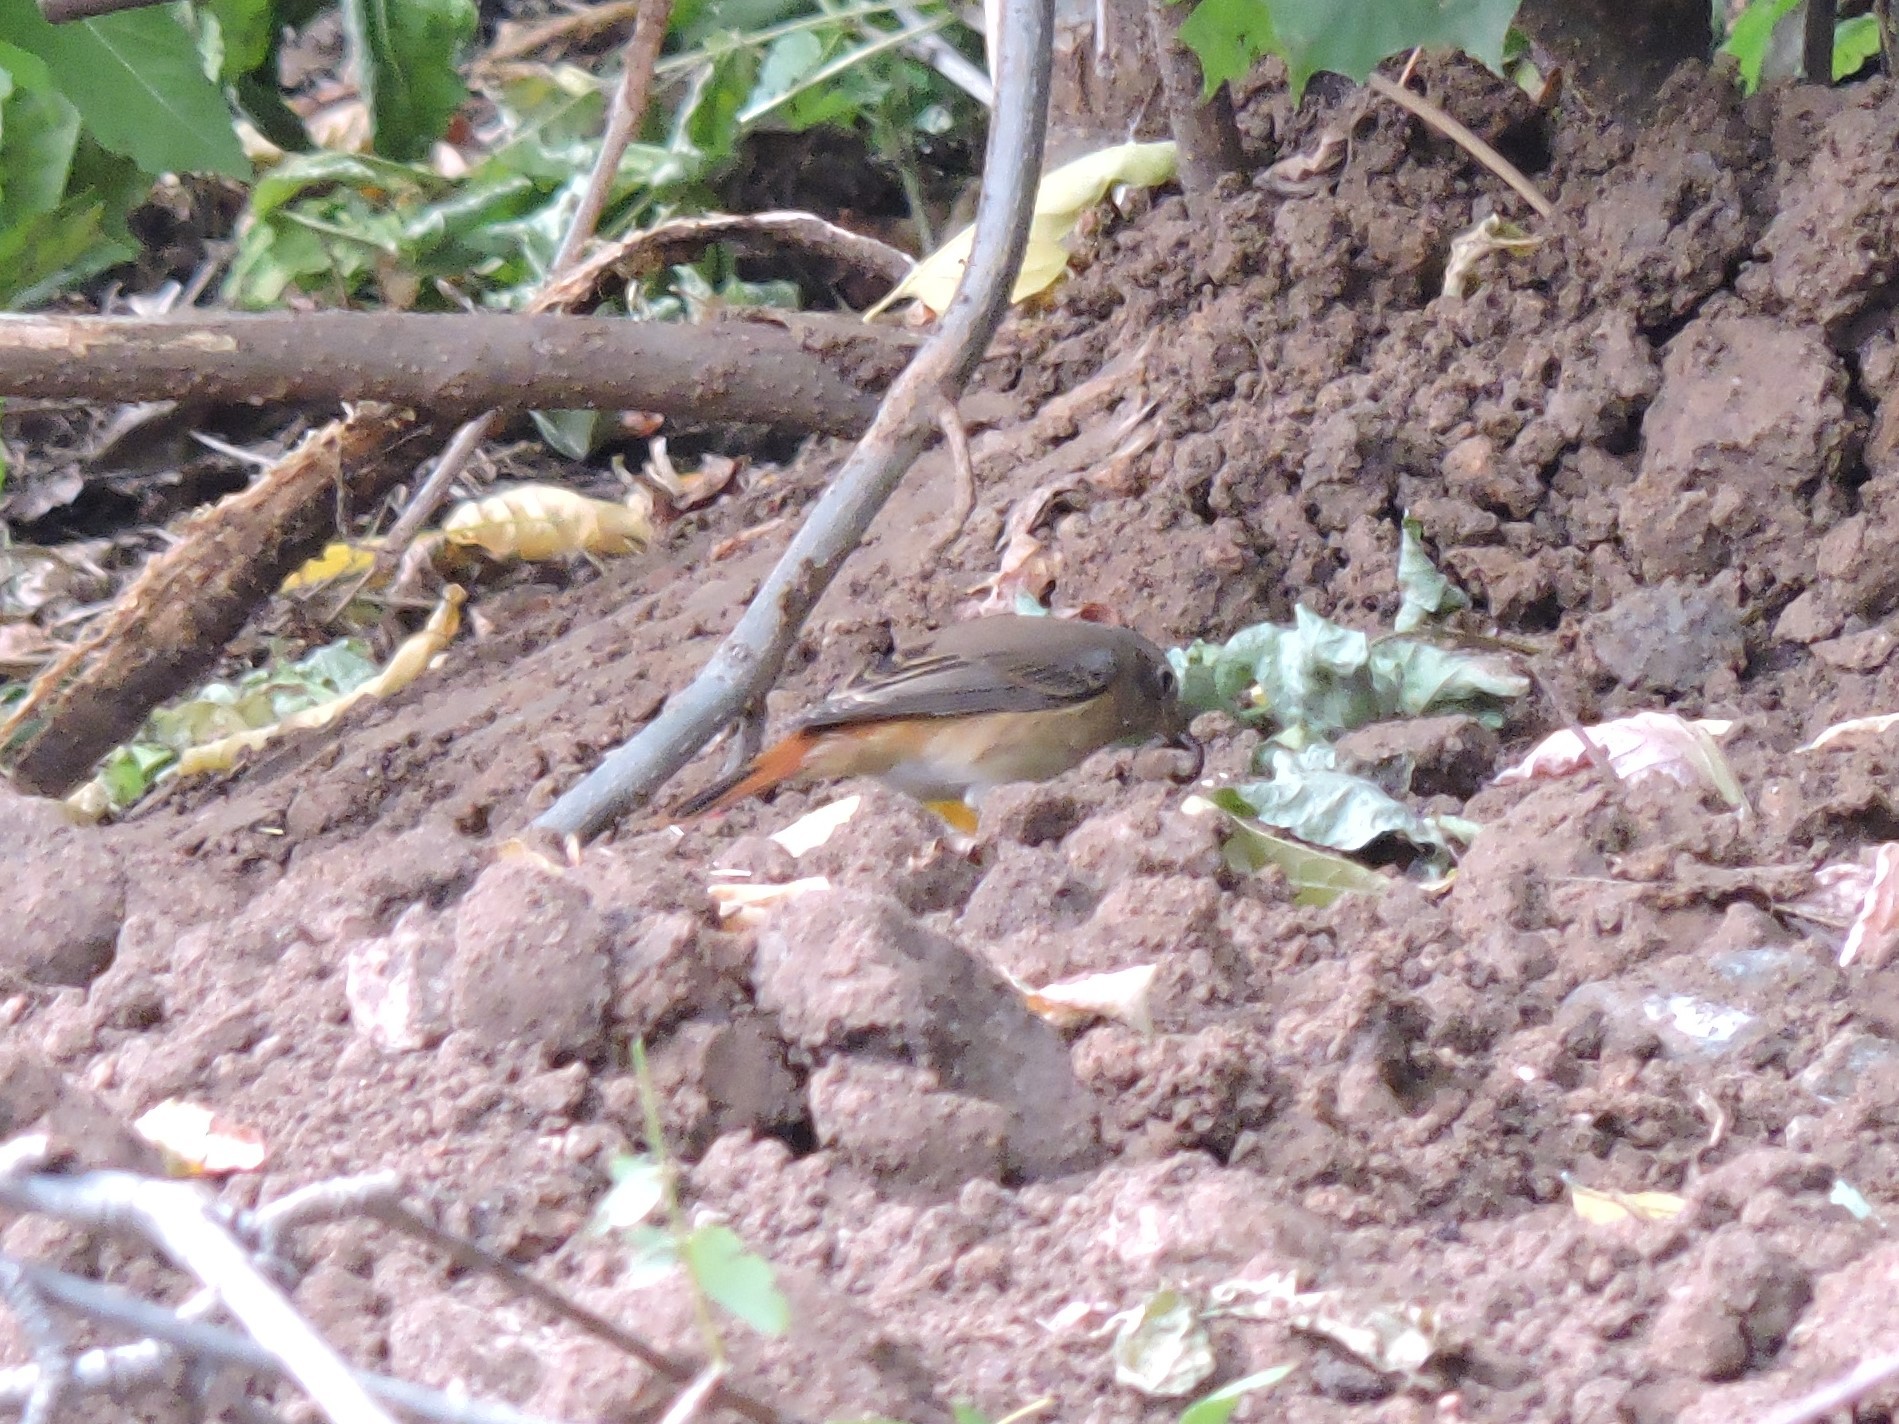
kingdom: Animalia
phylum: Chordata
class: Aves
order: Passeriformes
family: Muscicapidae
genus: Phoenicurus
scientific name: Phoenicurus phoenicurus
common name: Common redstart
